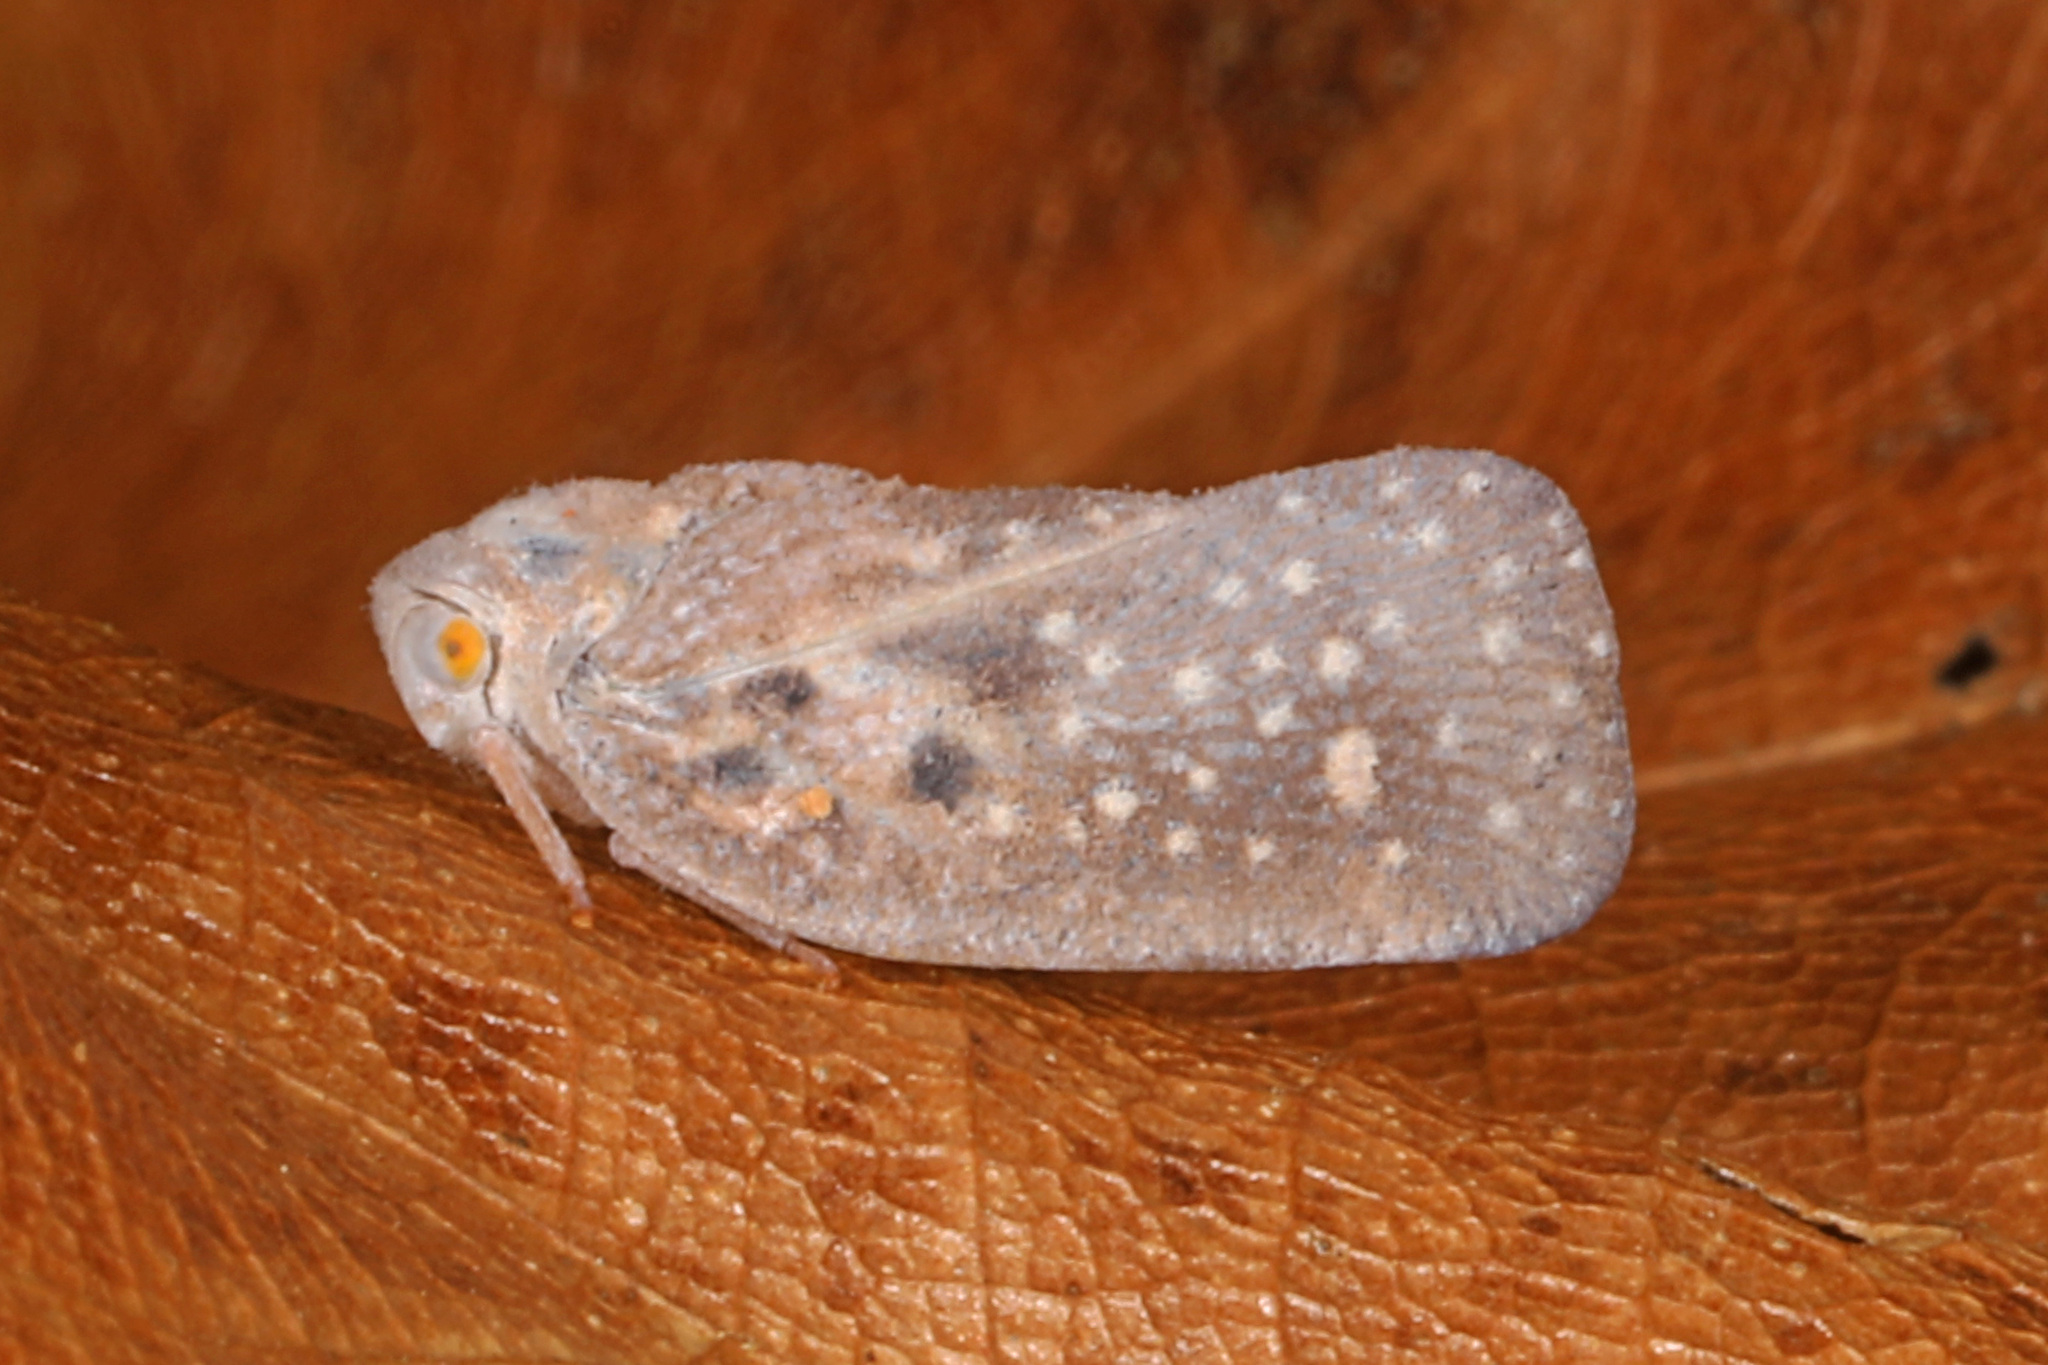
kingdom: Animalia
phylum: Arthropoda
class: Insecta
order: Hemiptera
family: Flatidae
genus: Metcalfa
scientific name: Metcalfa pruinosa
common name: Citrus flatid planthopper
